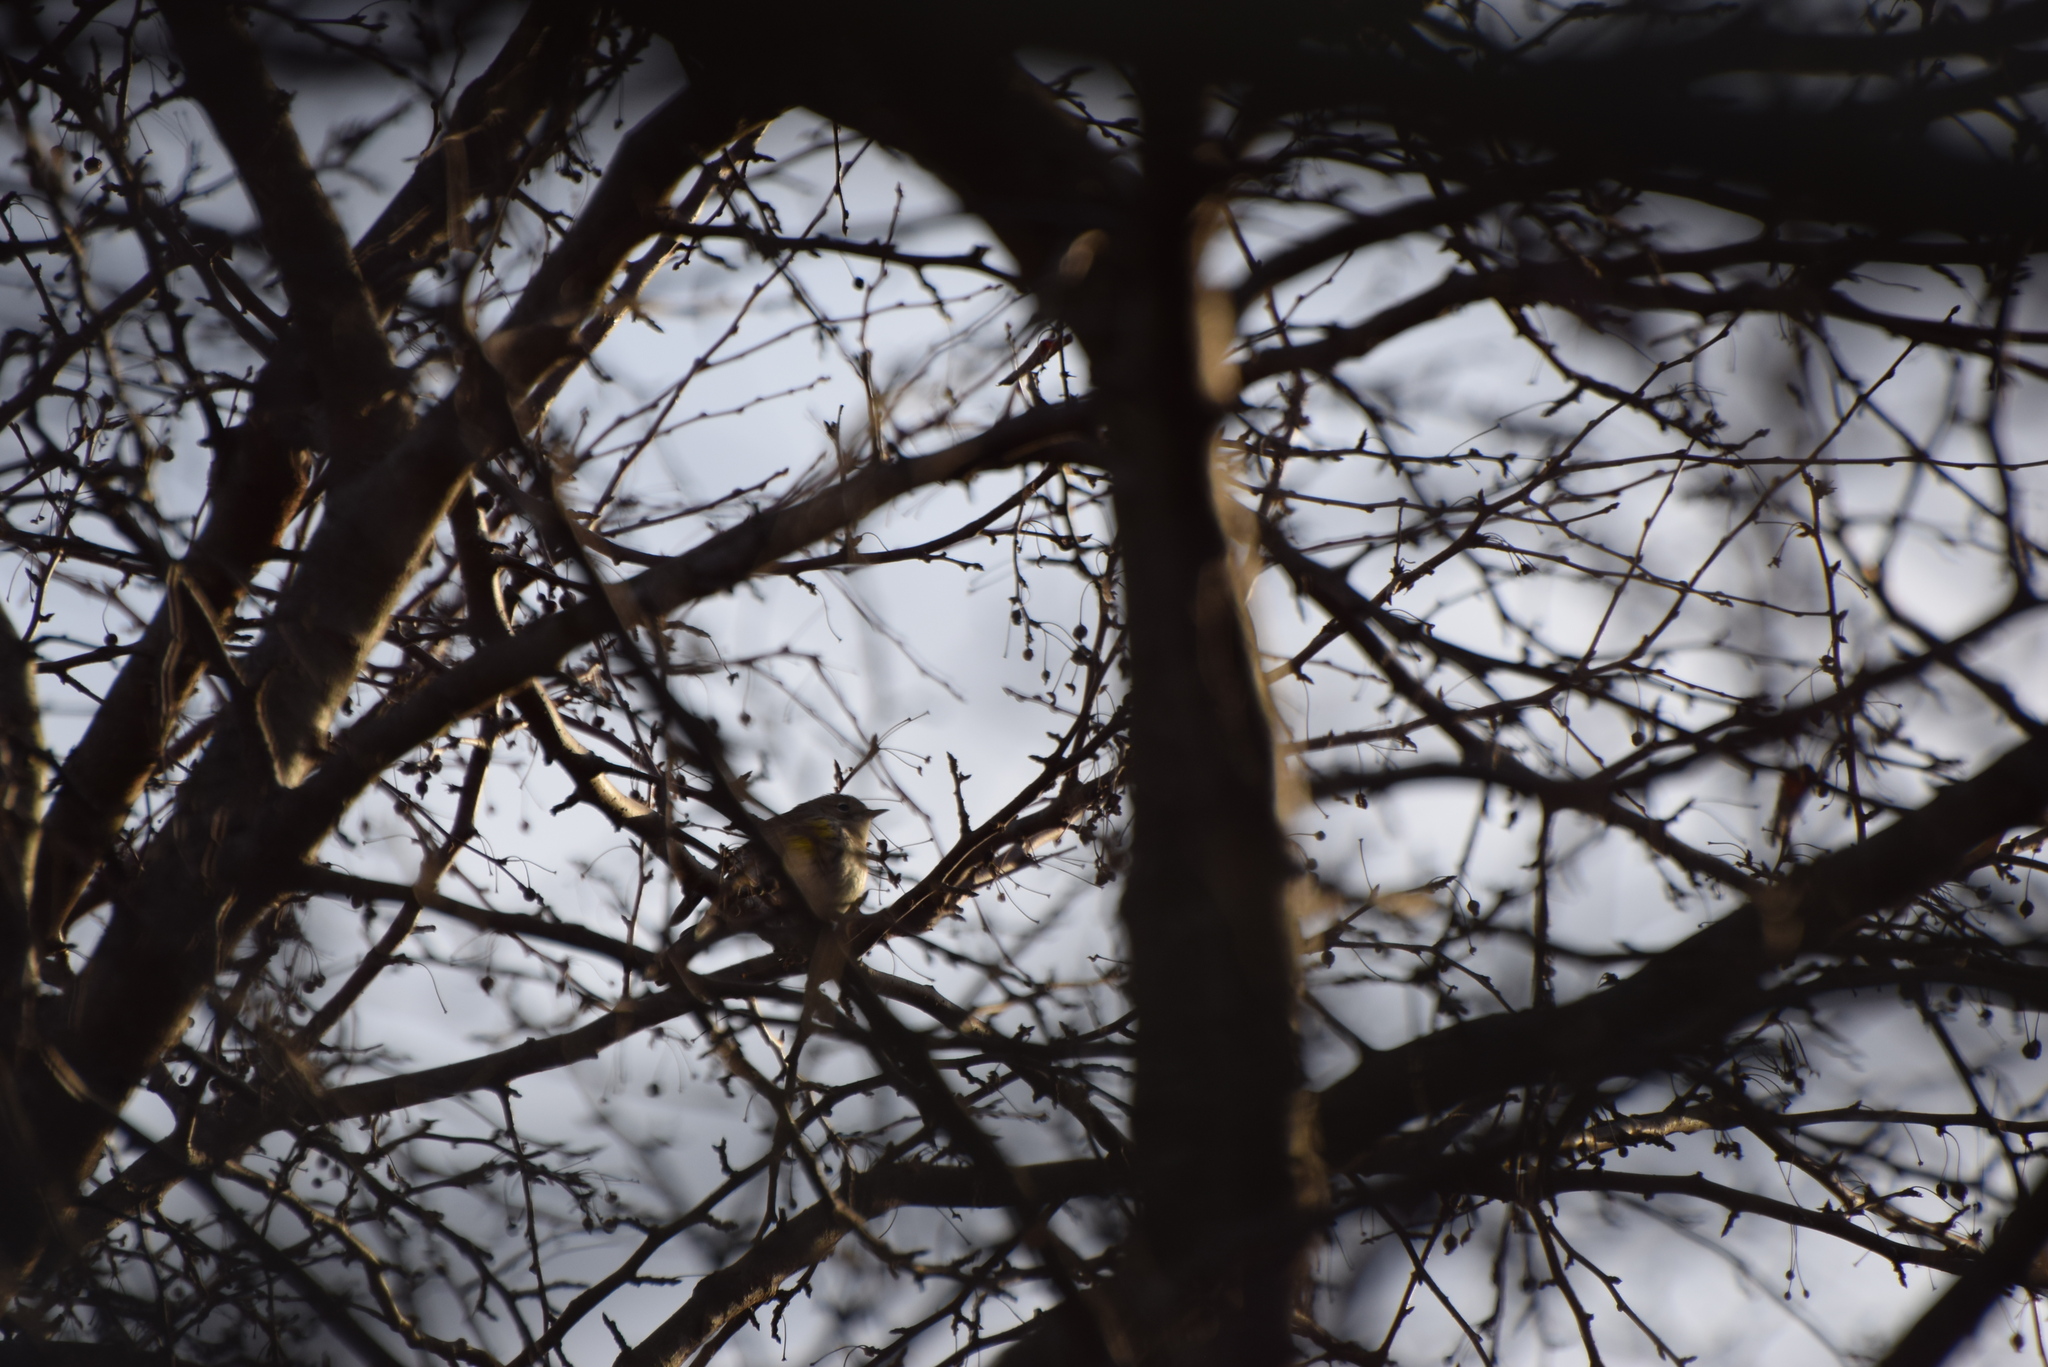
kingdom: Animalia
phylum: Chordata
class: Aves
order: Passeriformes
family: Parulidae
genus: Setophaga
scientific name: Setophaga coronata
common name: Myrtle warbler
